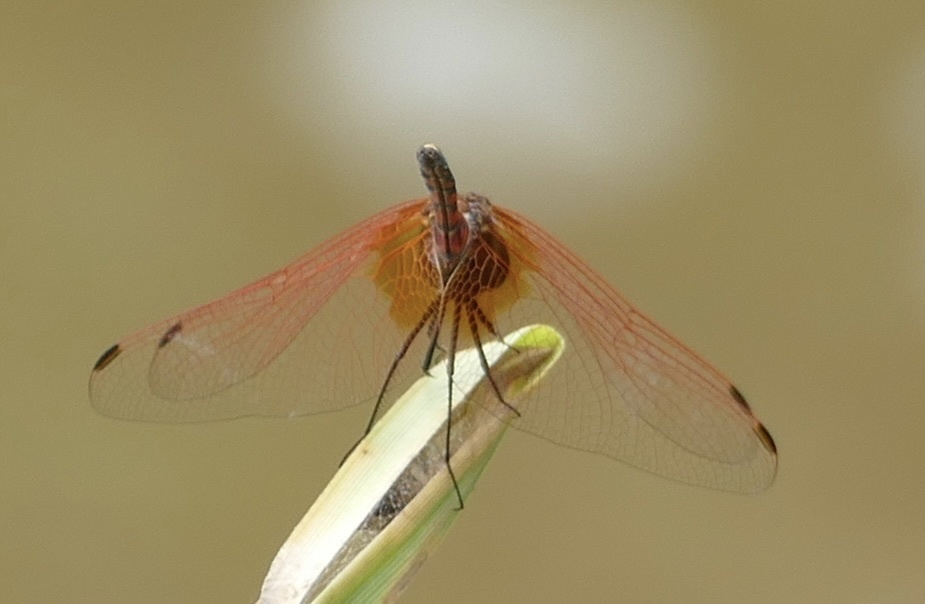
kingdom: Animalia
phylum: Arthropoda
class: Insecta
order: Odonata
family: Libellulidae
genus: Trithemis
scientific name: Trithemis arteriosa
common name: Red-veined dropwing
